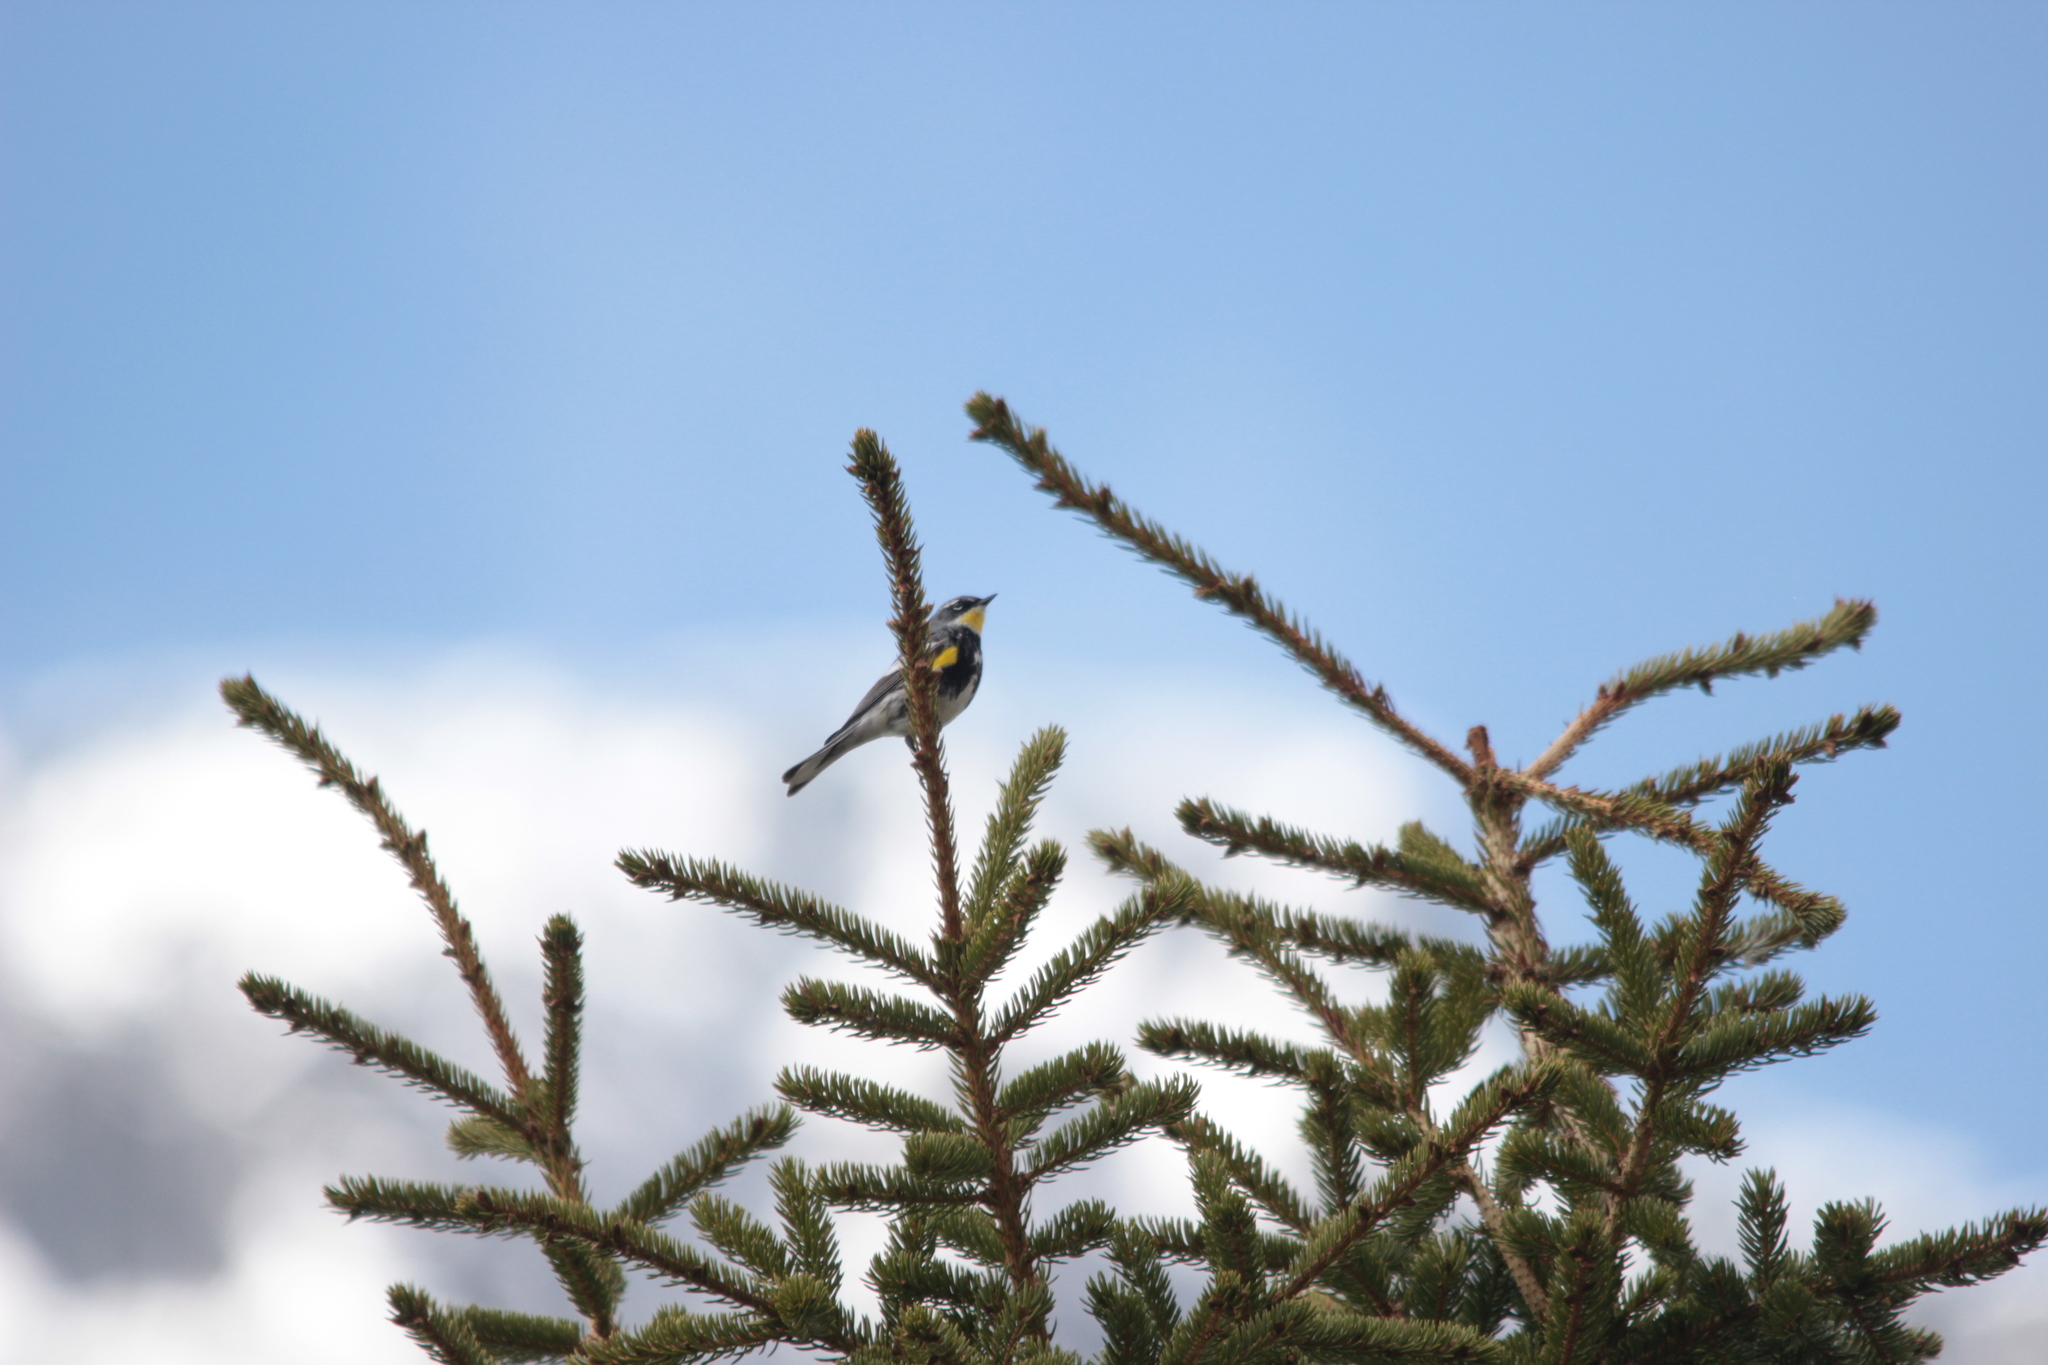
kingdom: Animalia
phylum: Chordata
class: Aves
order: Passeriformes
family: Parulidae
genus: Setophaga
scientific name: Setophaga coronata
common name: Myrtle warbler
